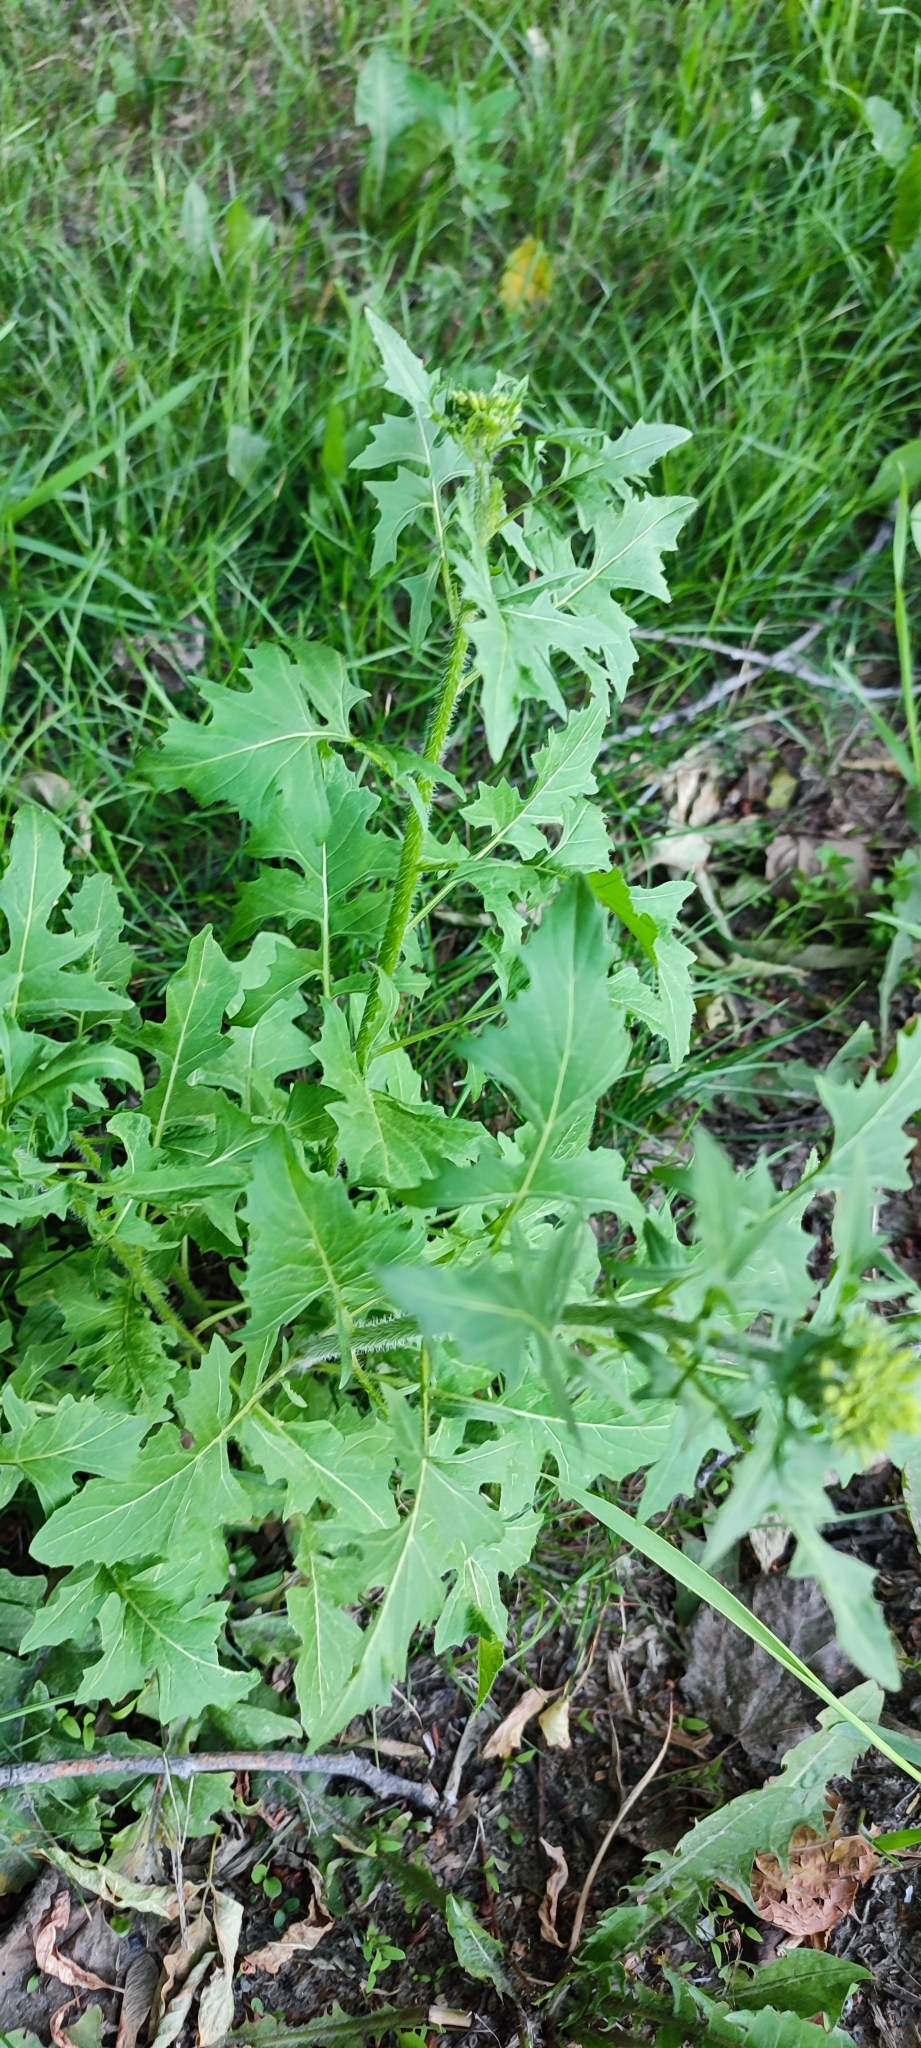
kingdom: Plantae
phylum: Tracheophyta
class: Magnoliopsida
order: Brassicales
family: Brassicaceae
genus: Sisymbrium
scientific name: Sisymbrium loeselii
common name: False london-rocket
